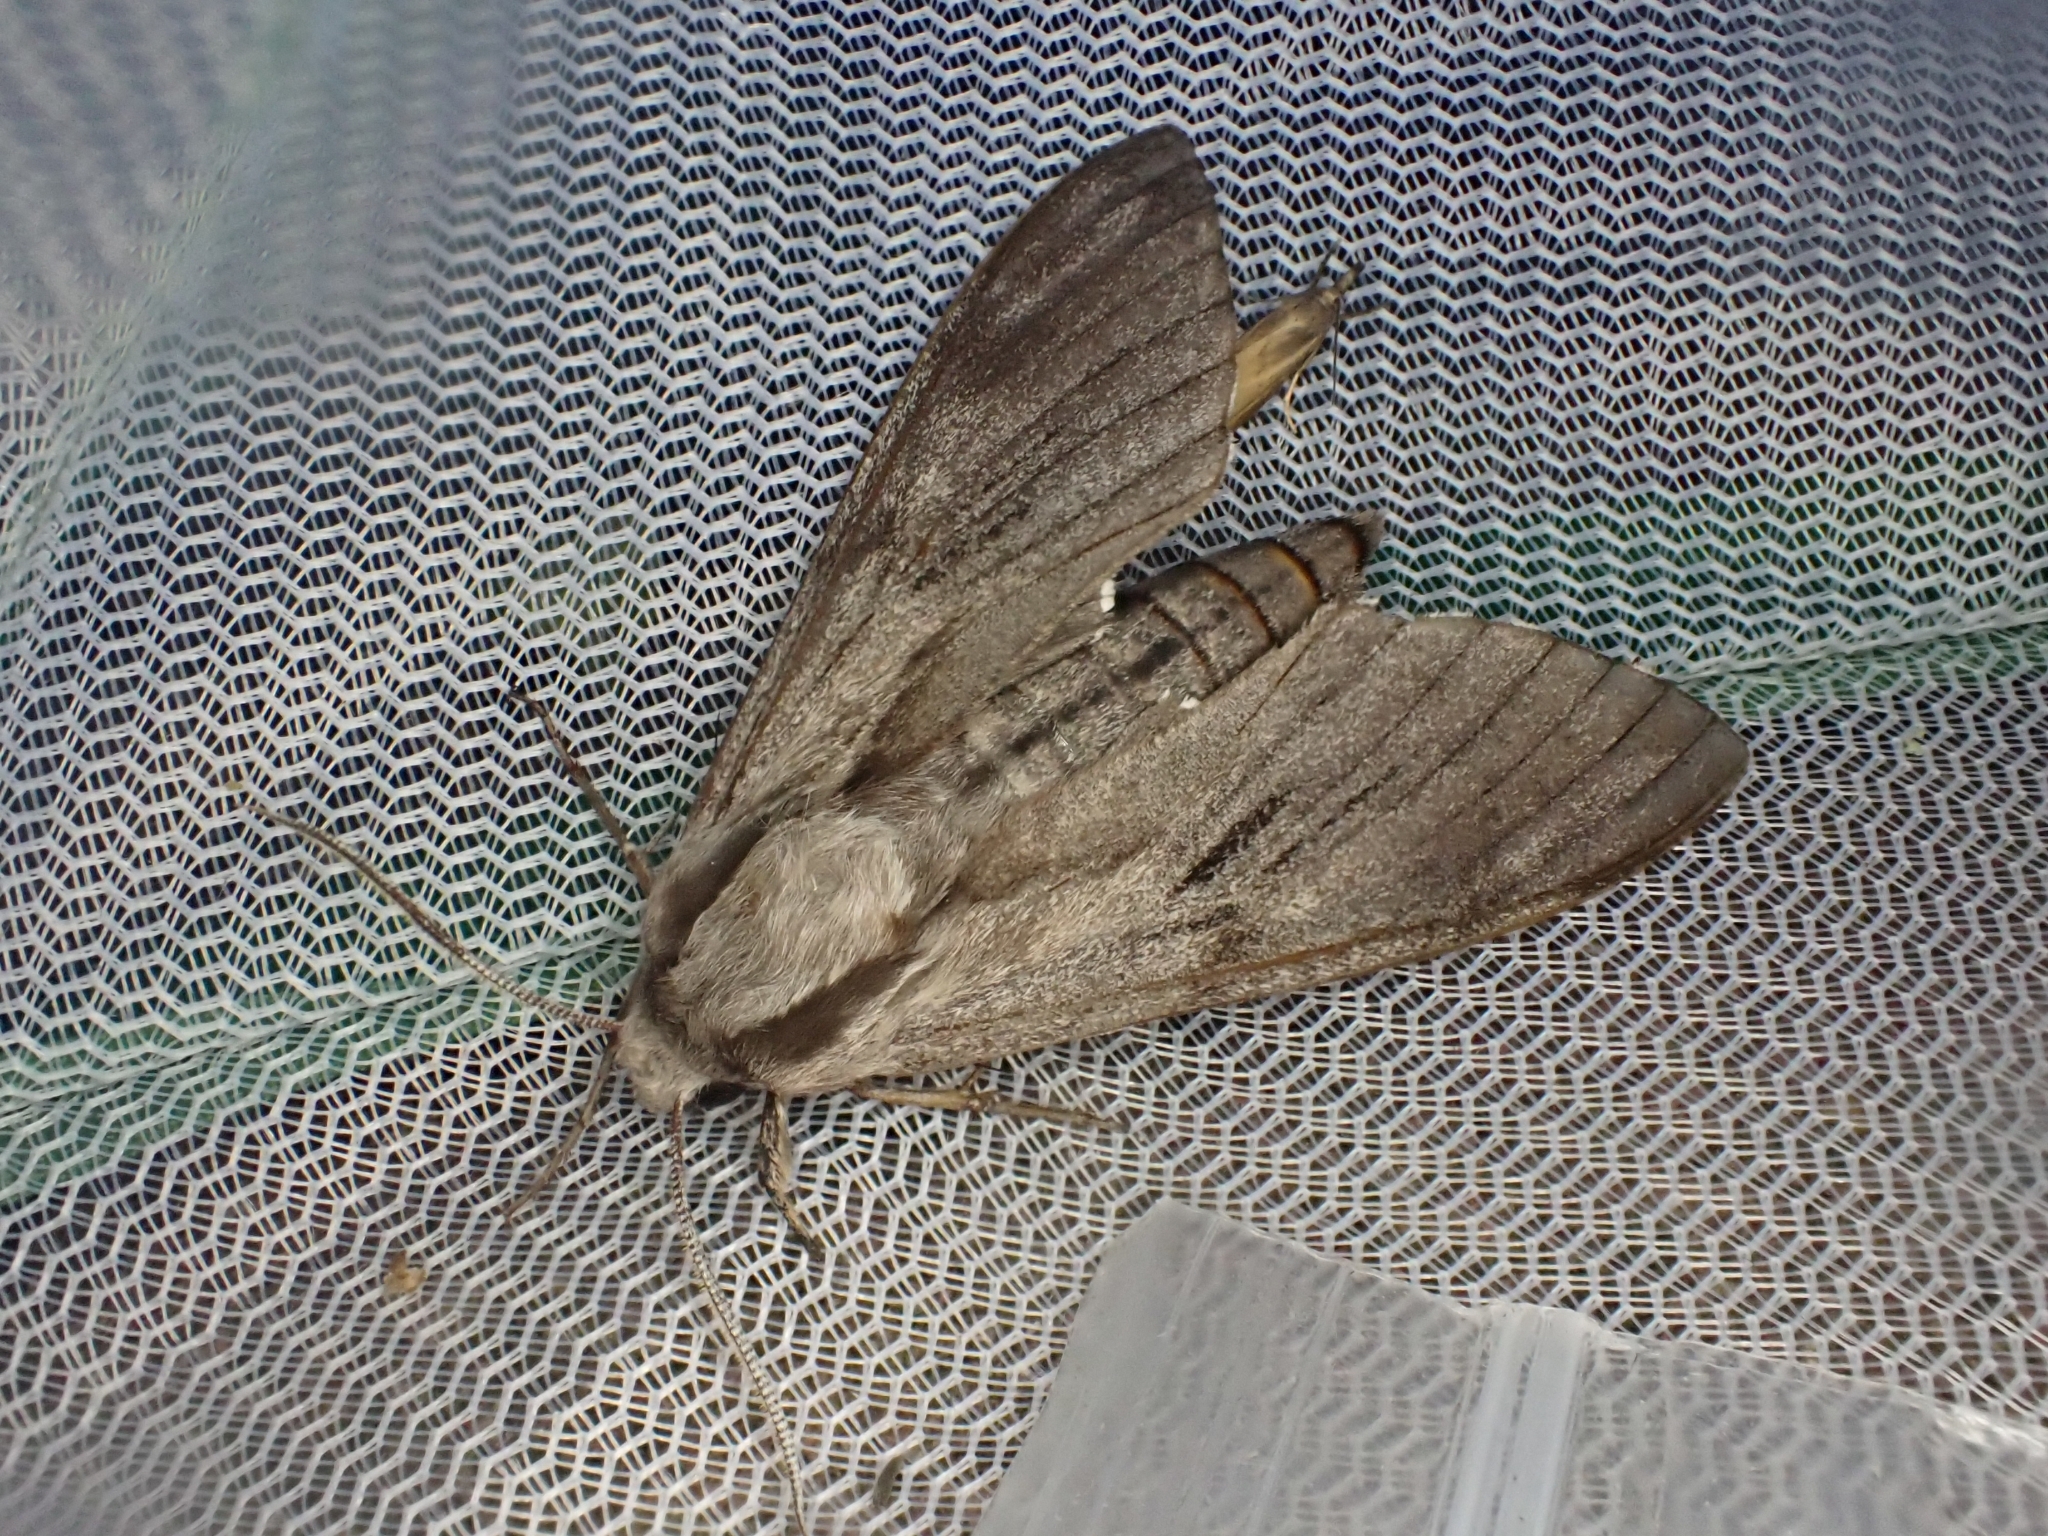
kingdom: Animalia
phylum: Arthropoda
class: Insecta
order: Lepidoptera
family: Sphingidae
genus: Sphinx
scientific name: Sphinx pinastri
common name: Pine hawk-moth
